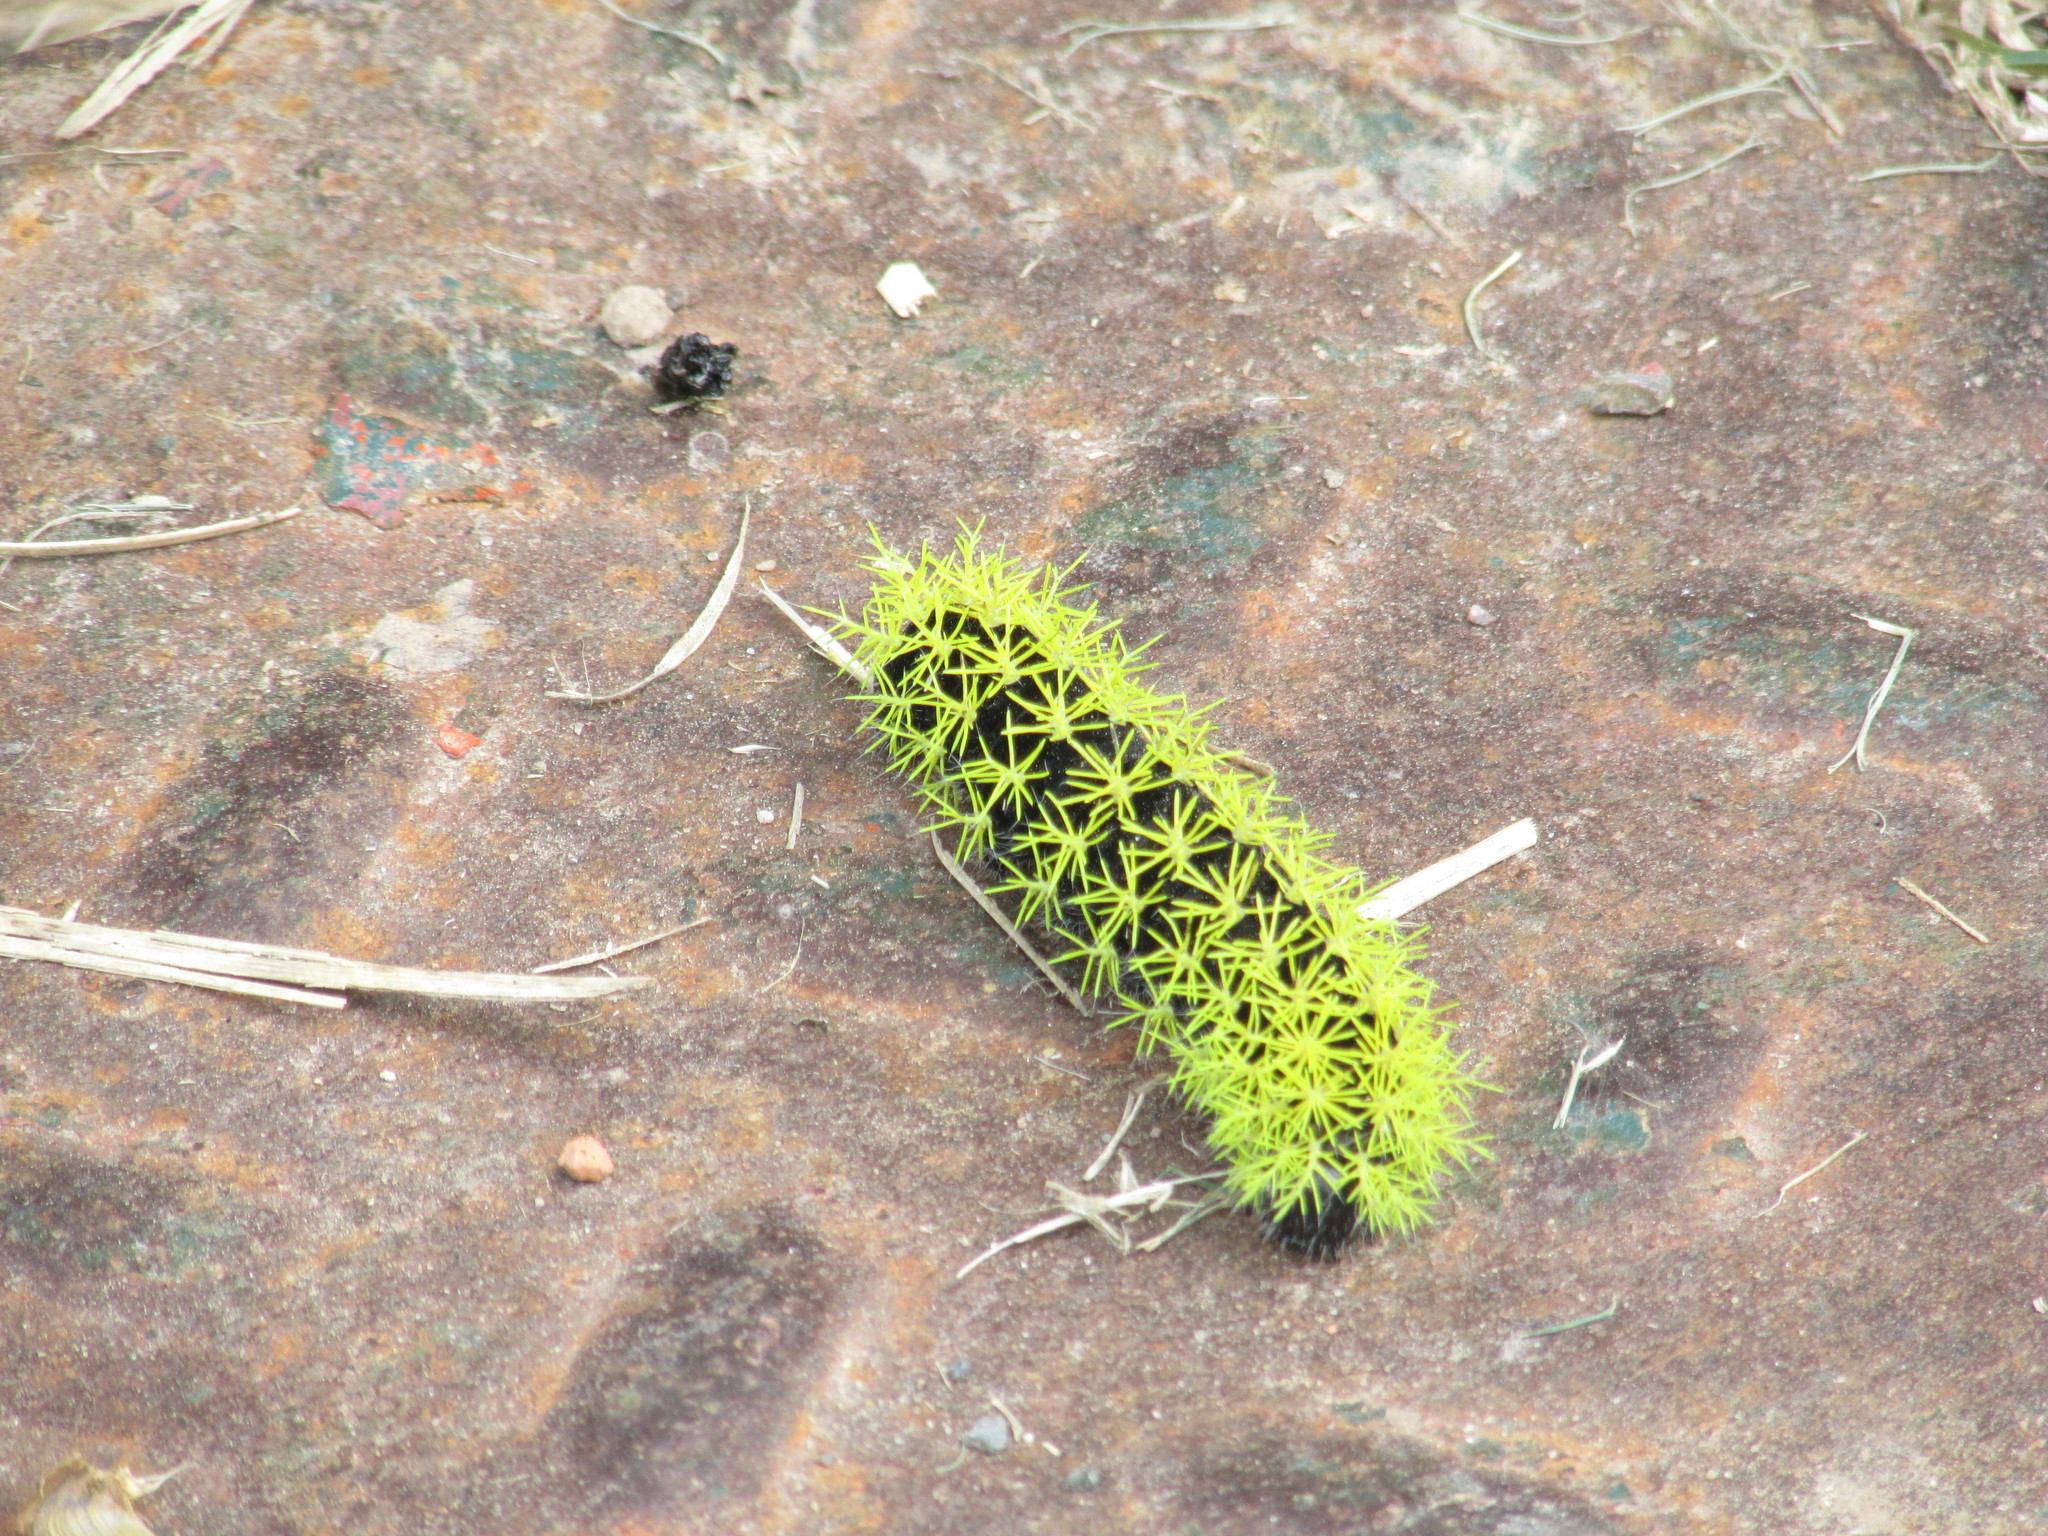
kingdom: Animalia
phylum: Arthropoda
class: Insecta
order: Lepidoptera
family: Saturniidae
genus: Leucanella
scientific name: Leucanella viridescens
